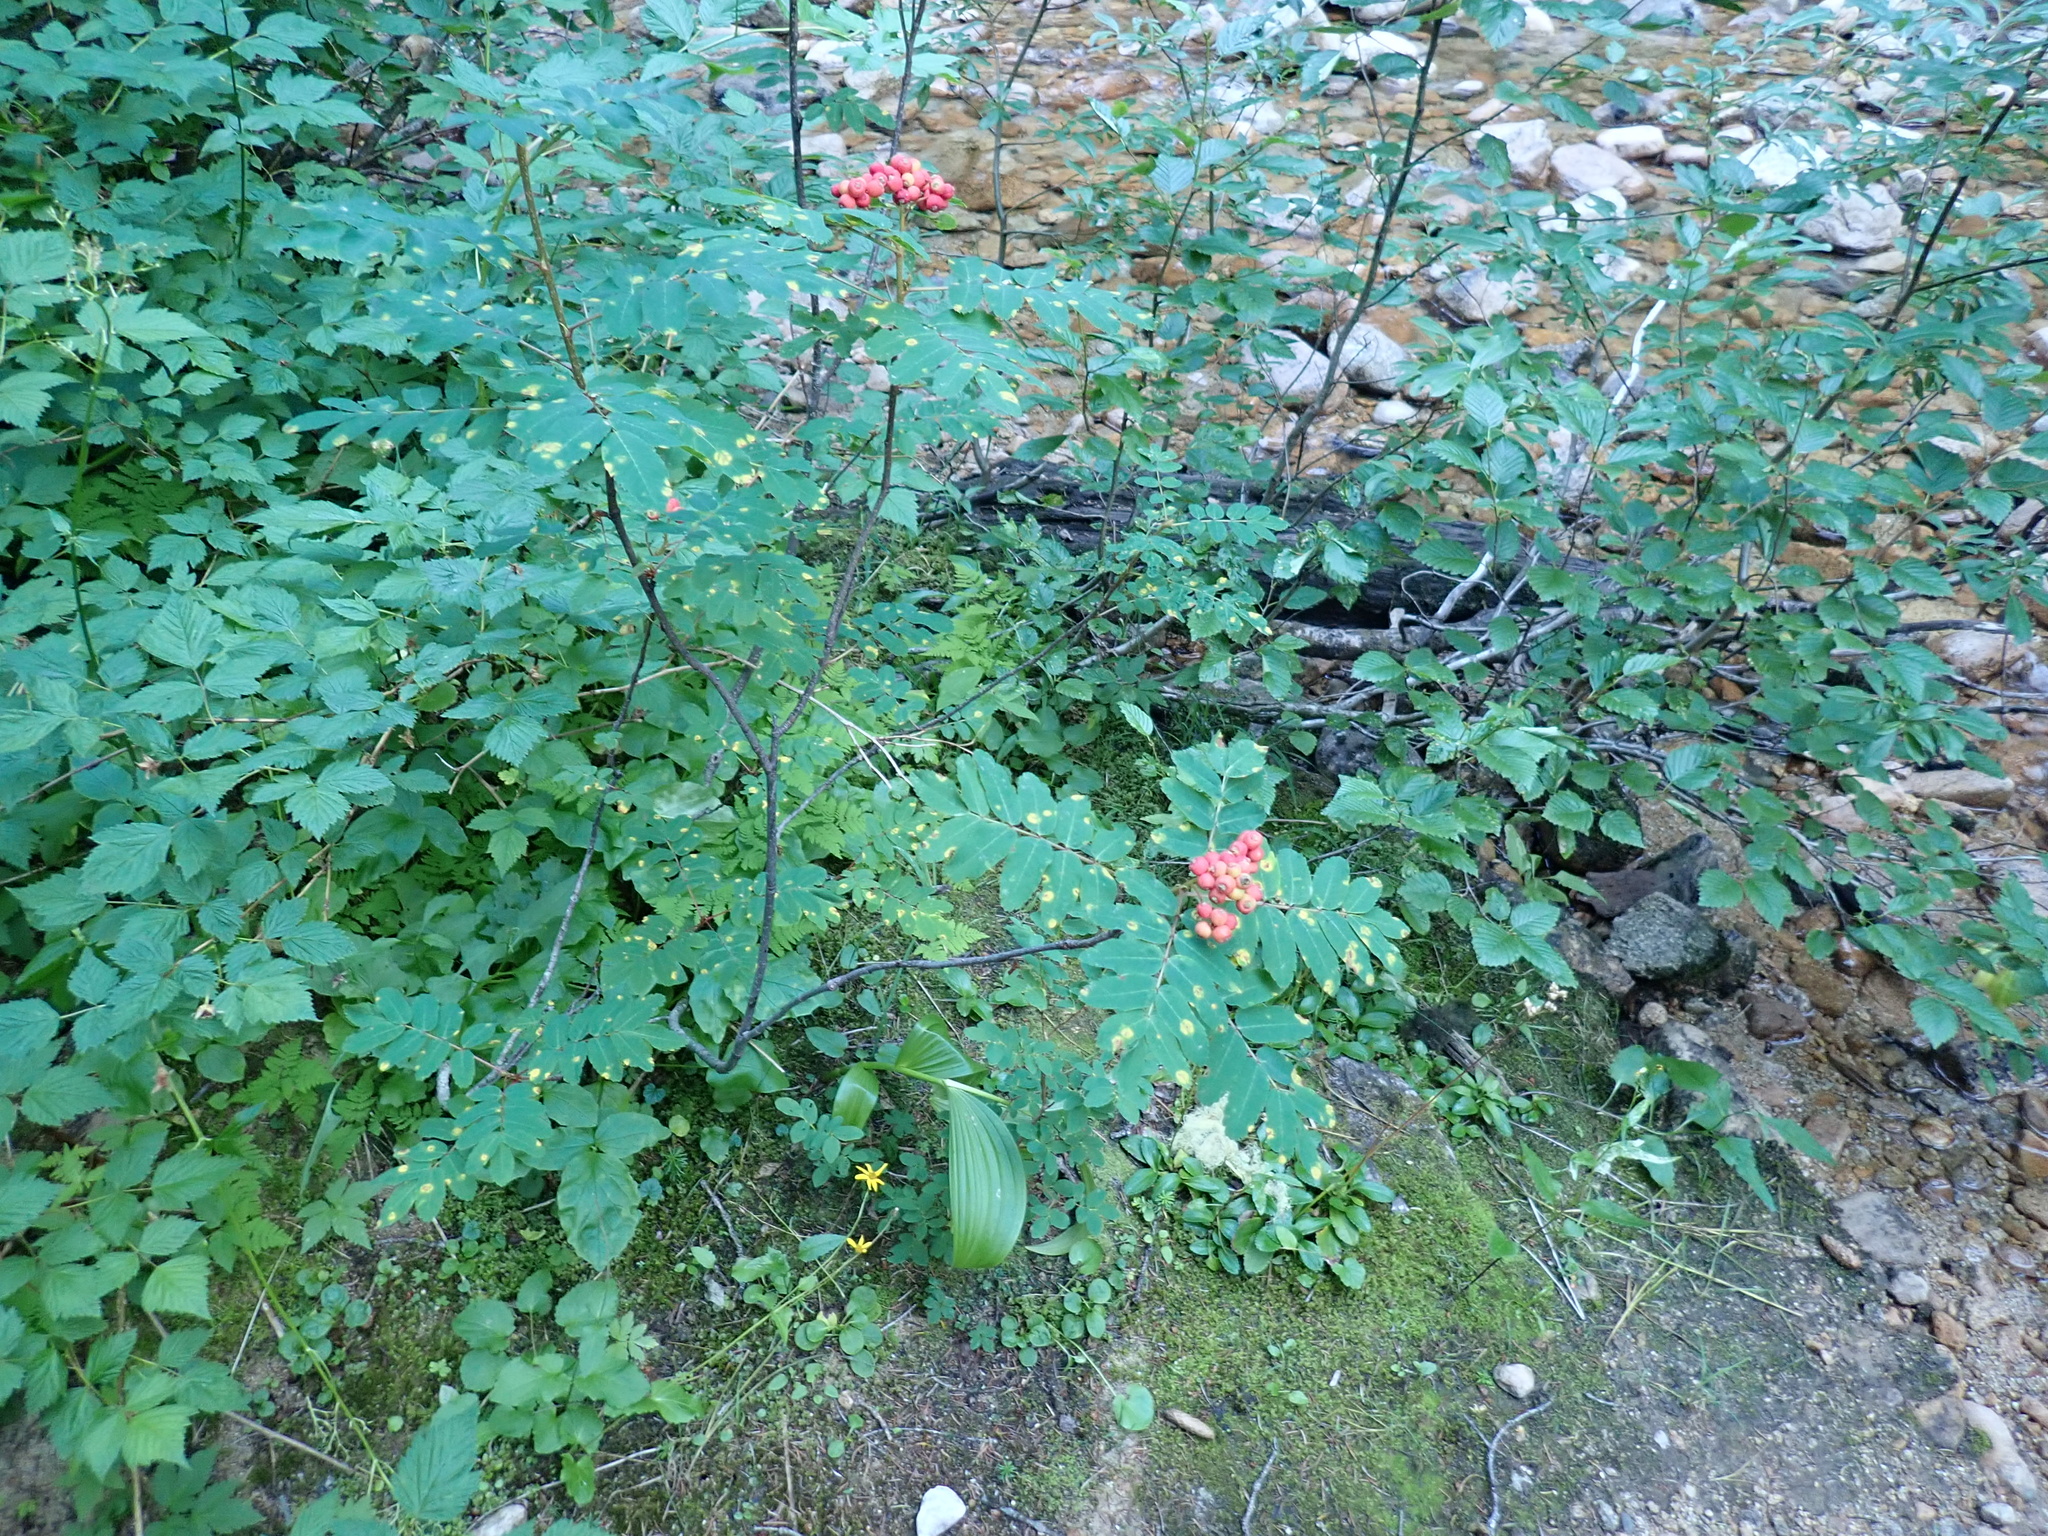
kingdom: Plantae
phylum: Tracheophyta
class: Magnoliopsida
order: Rosales
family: Rosaceae
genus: Sorbus
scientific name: Sorbus sitchensis
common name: Sitka mountain-ash
